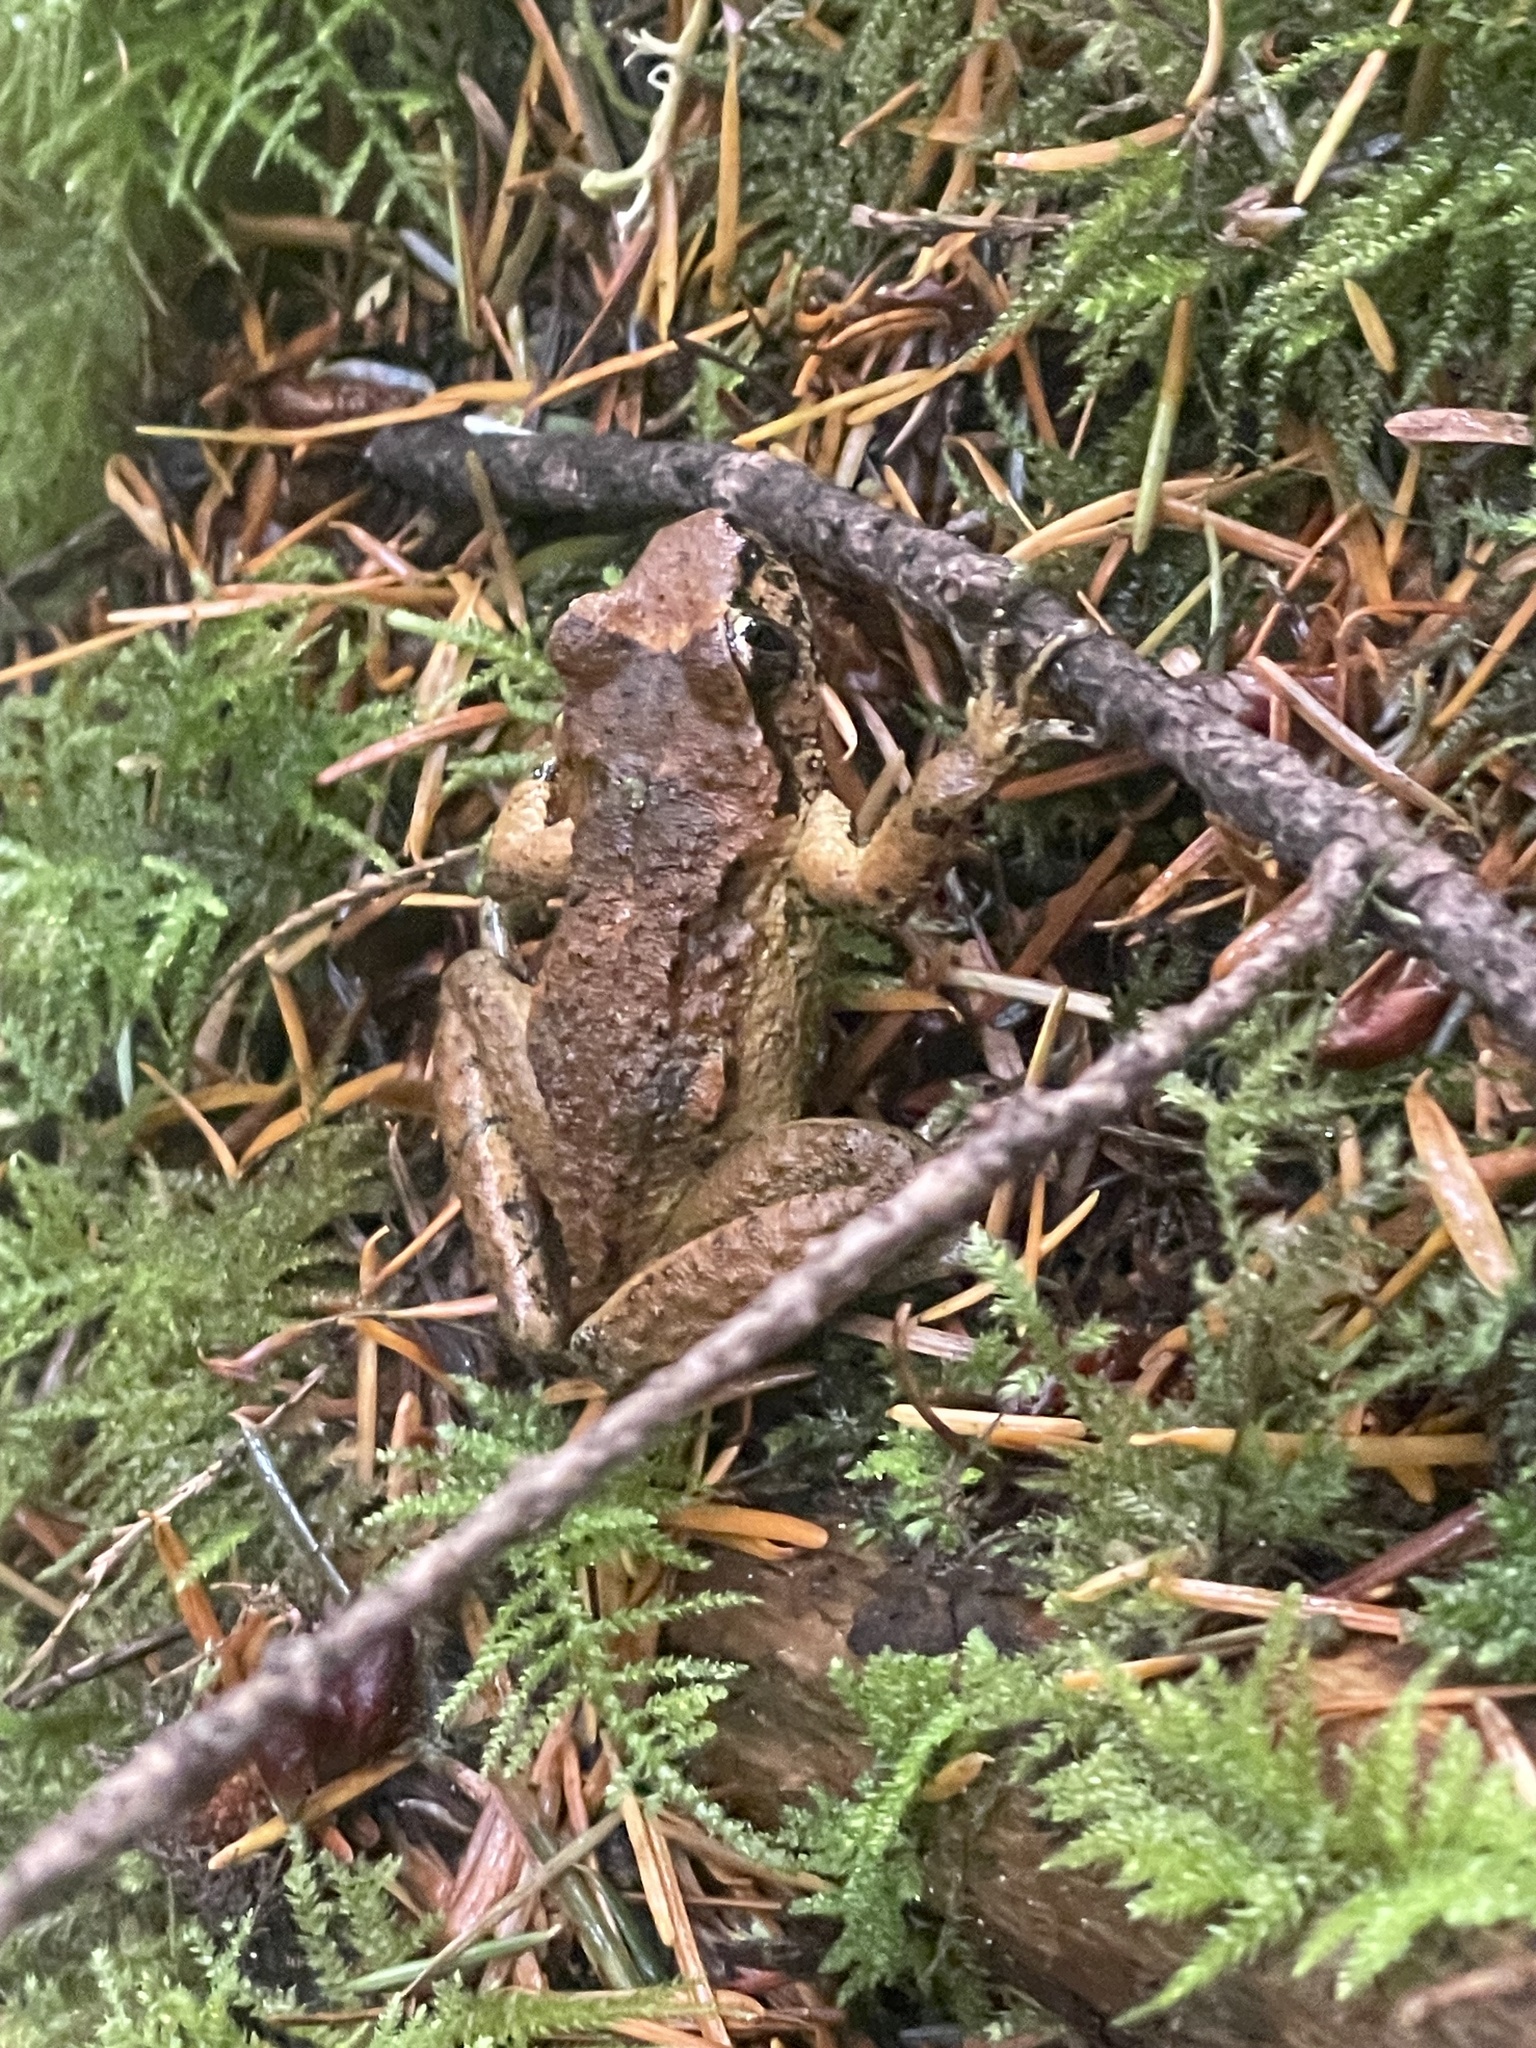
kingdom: Animalia
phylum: Chordata
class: Amphibia
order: Anura
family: Ascaphidae
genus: Ascaphus
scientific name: Ascaphus truei
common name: Tailed frog
